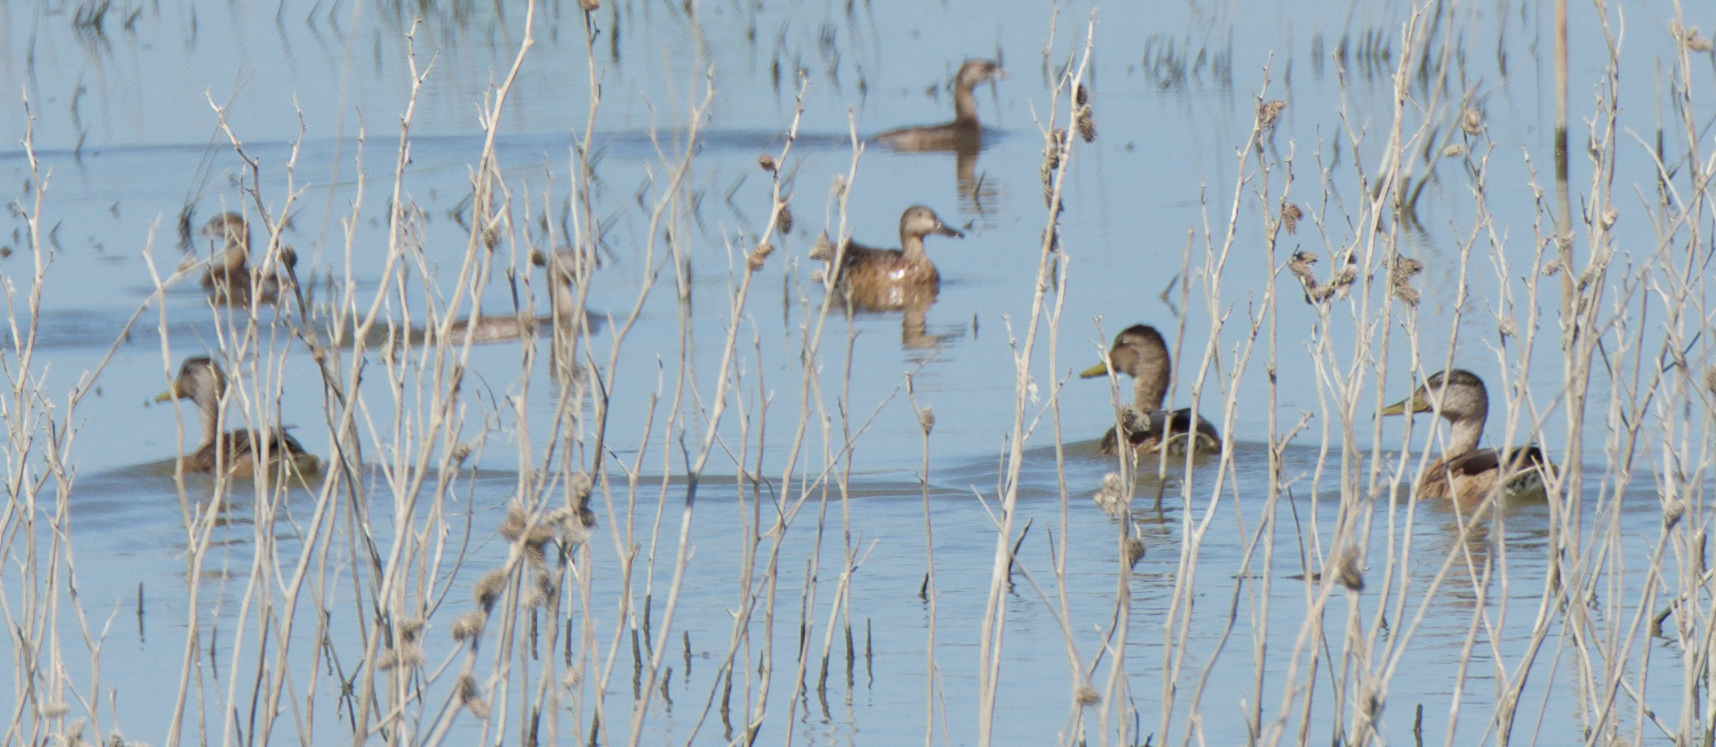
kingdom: Animalia
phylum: Chordata
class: Aves
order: Anseriformes
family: Anatidae
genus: Anas
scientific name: Anas platyrhynchos
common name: Mallard
